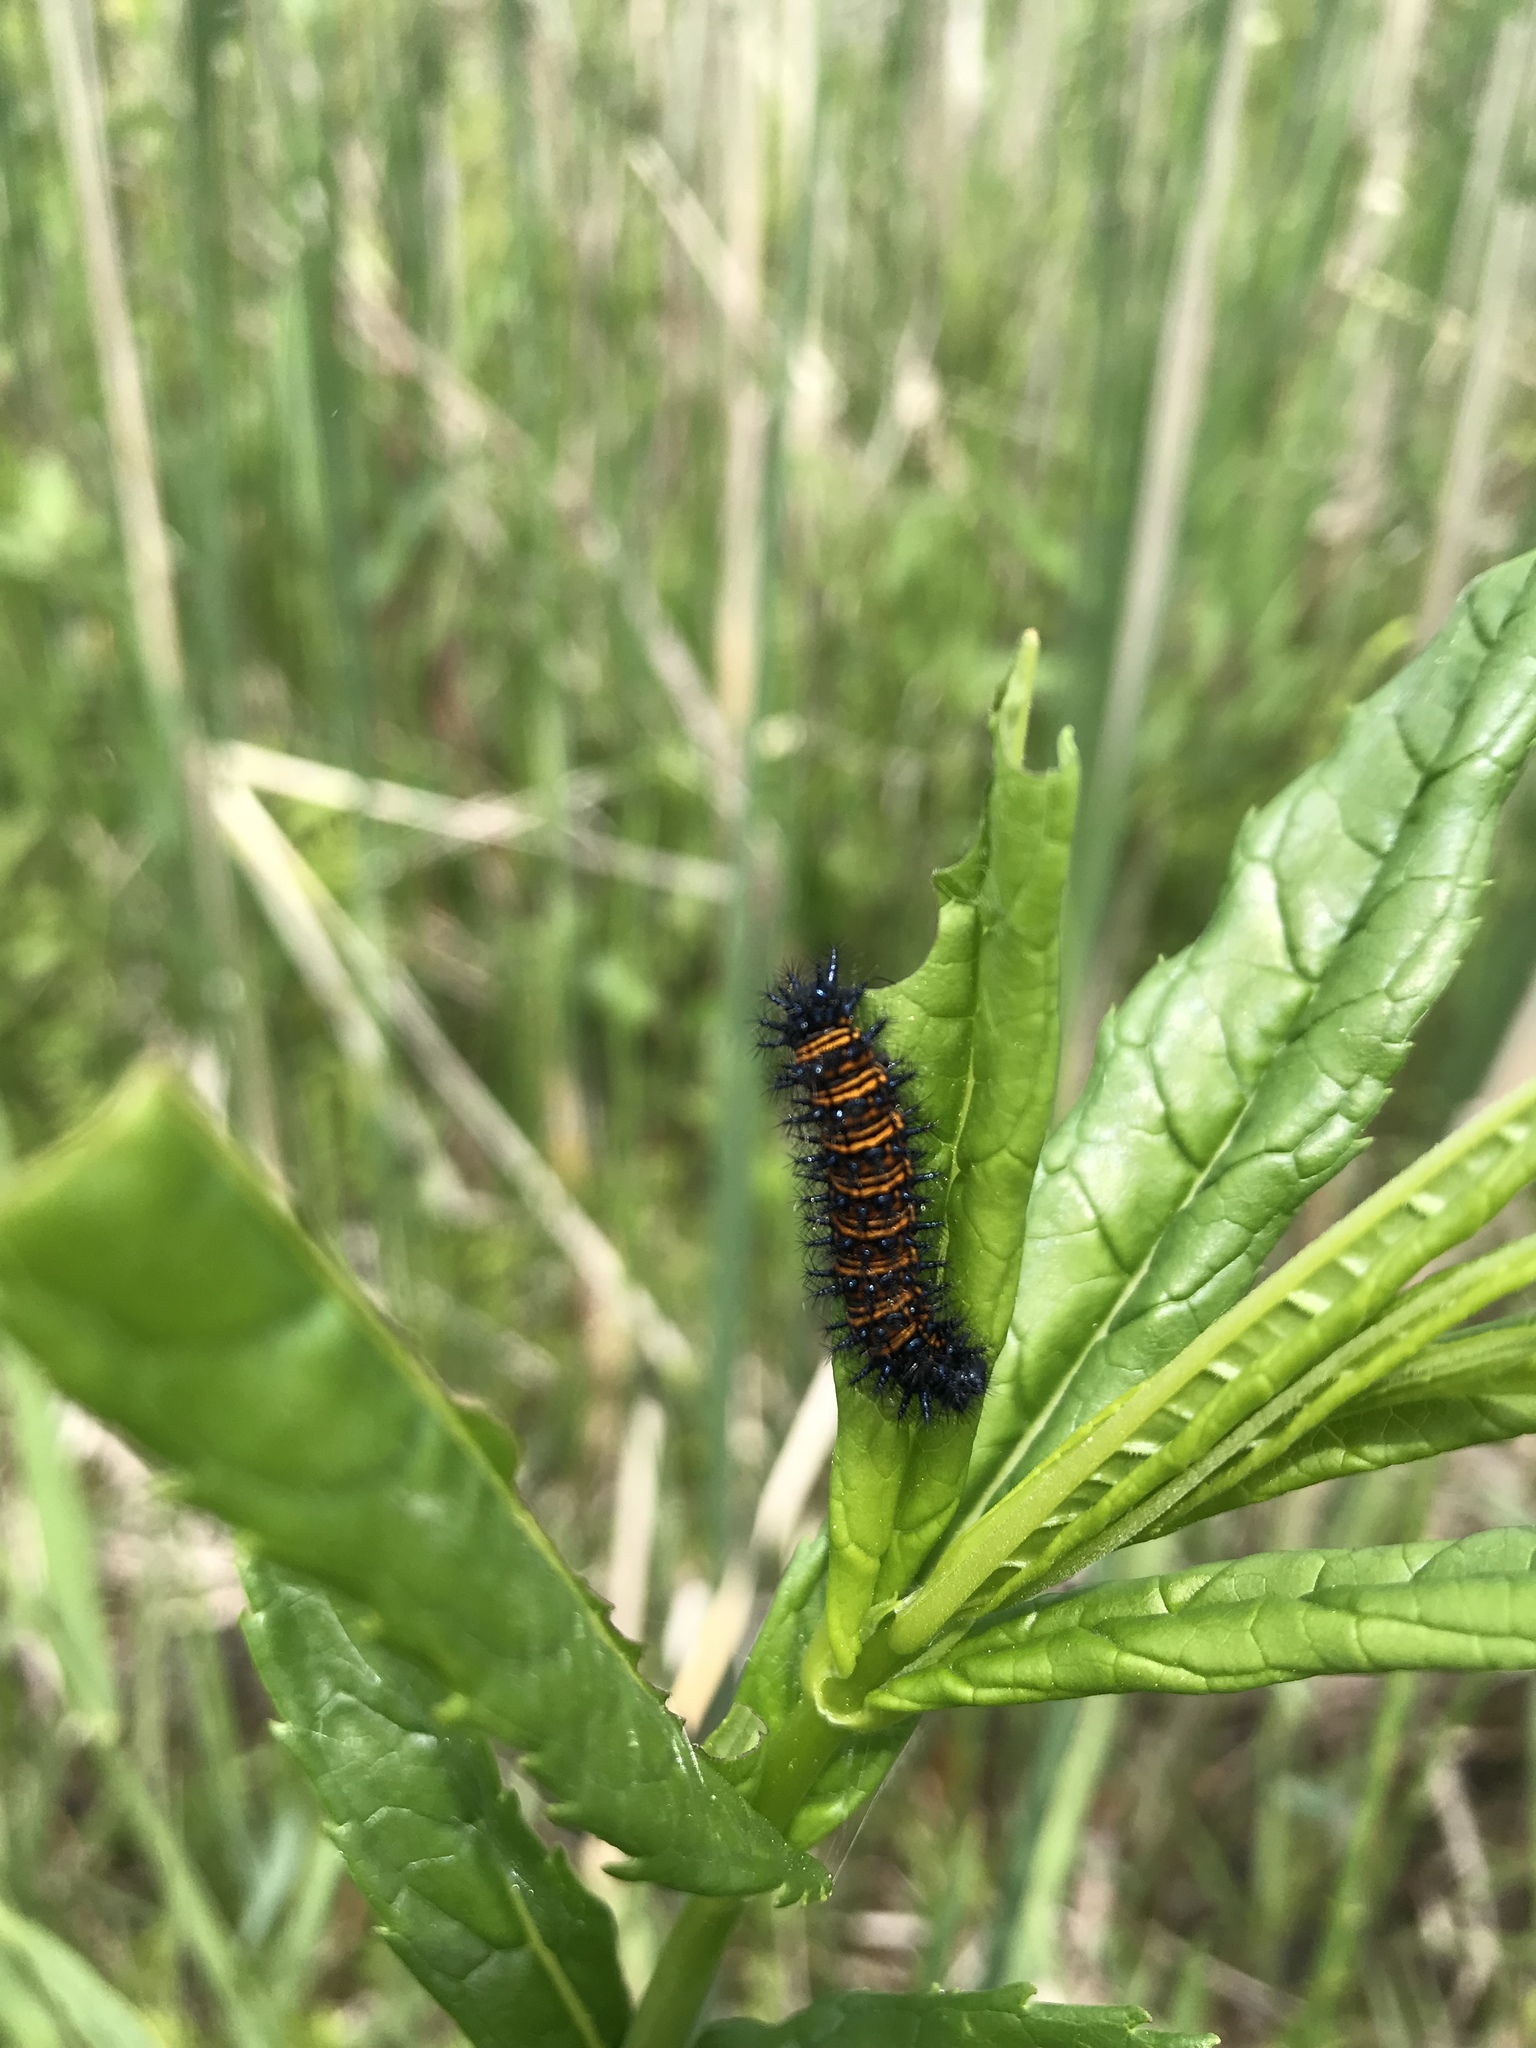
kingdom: Animalia
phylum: Arthropoda
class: Insecta
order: Lepidoptera
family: Nymphalidae
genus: Euphydryas
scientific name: Euphydryas phaeton
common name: Baltimore checkerspot
